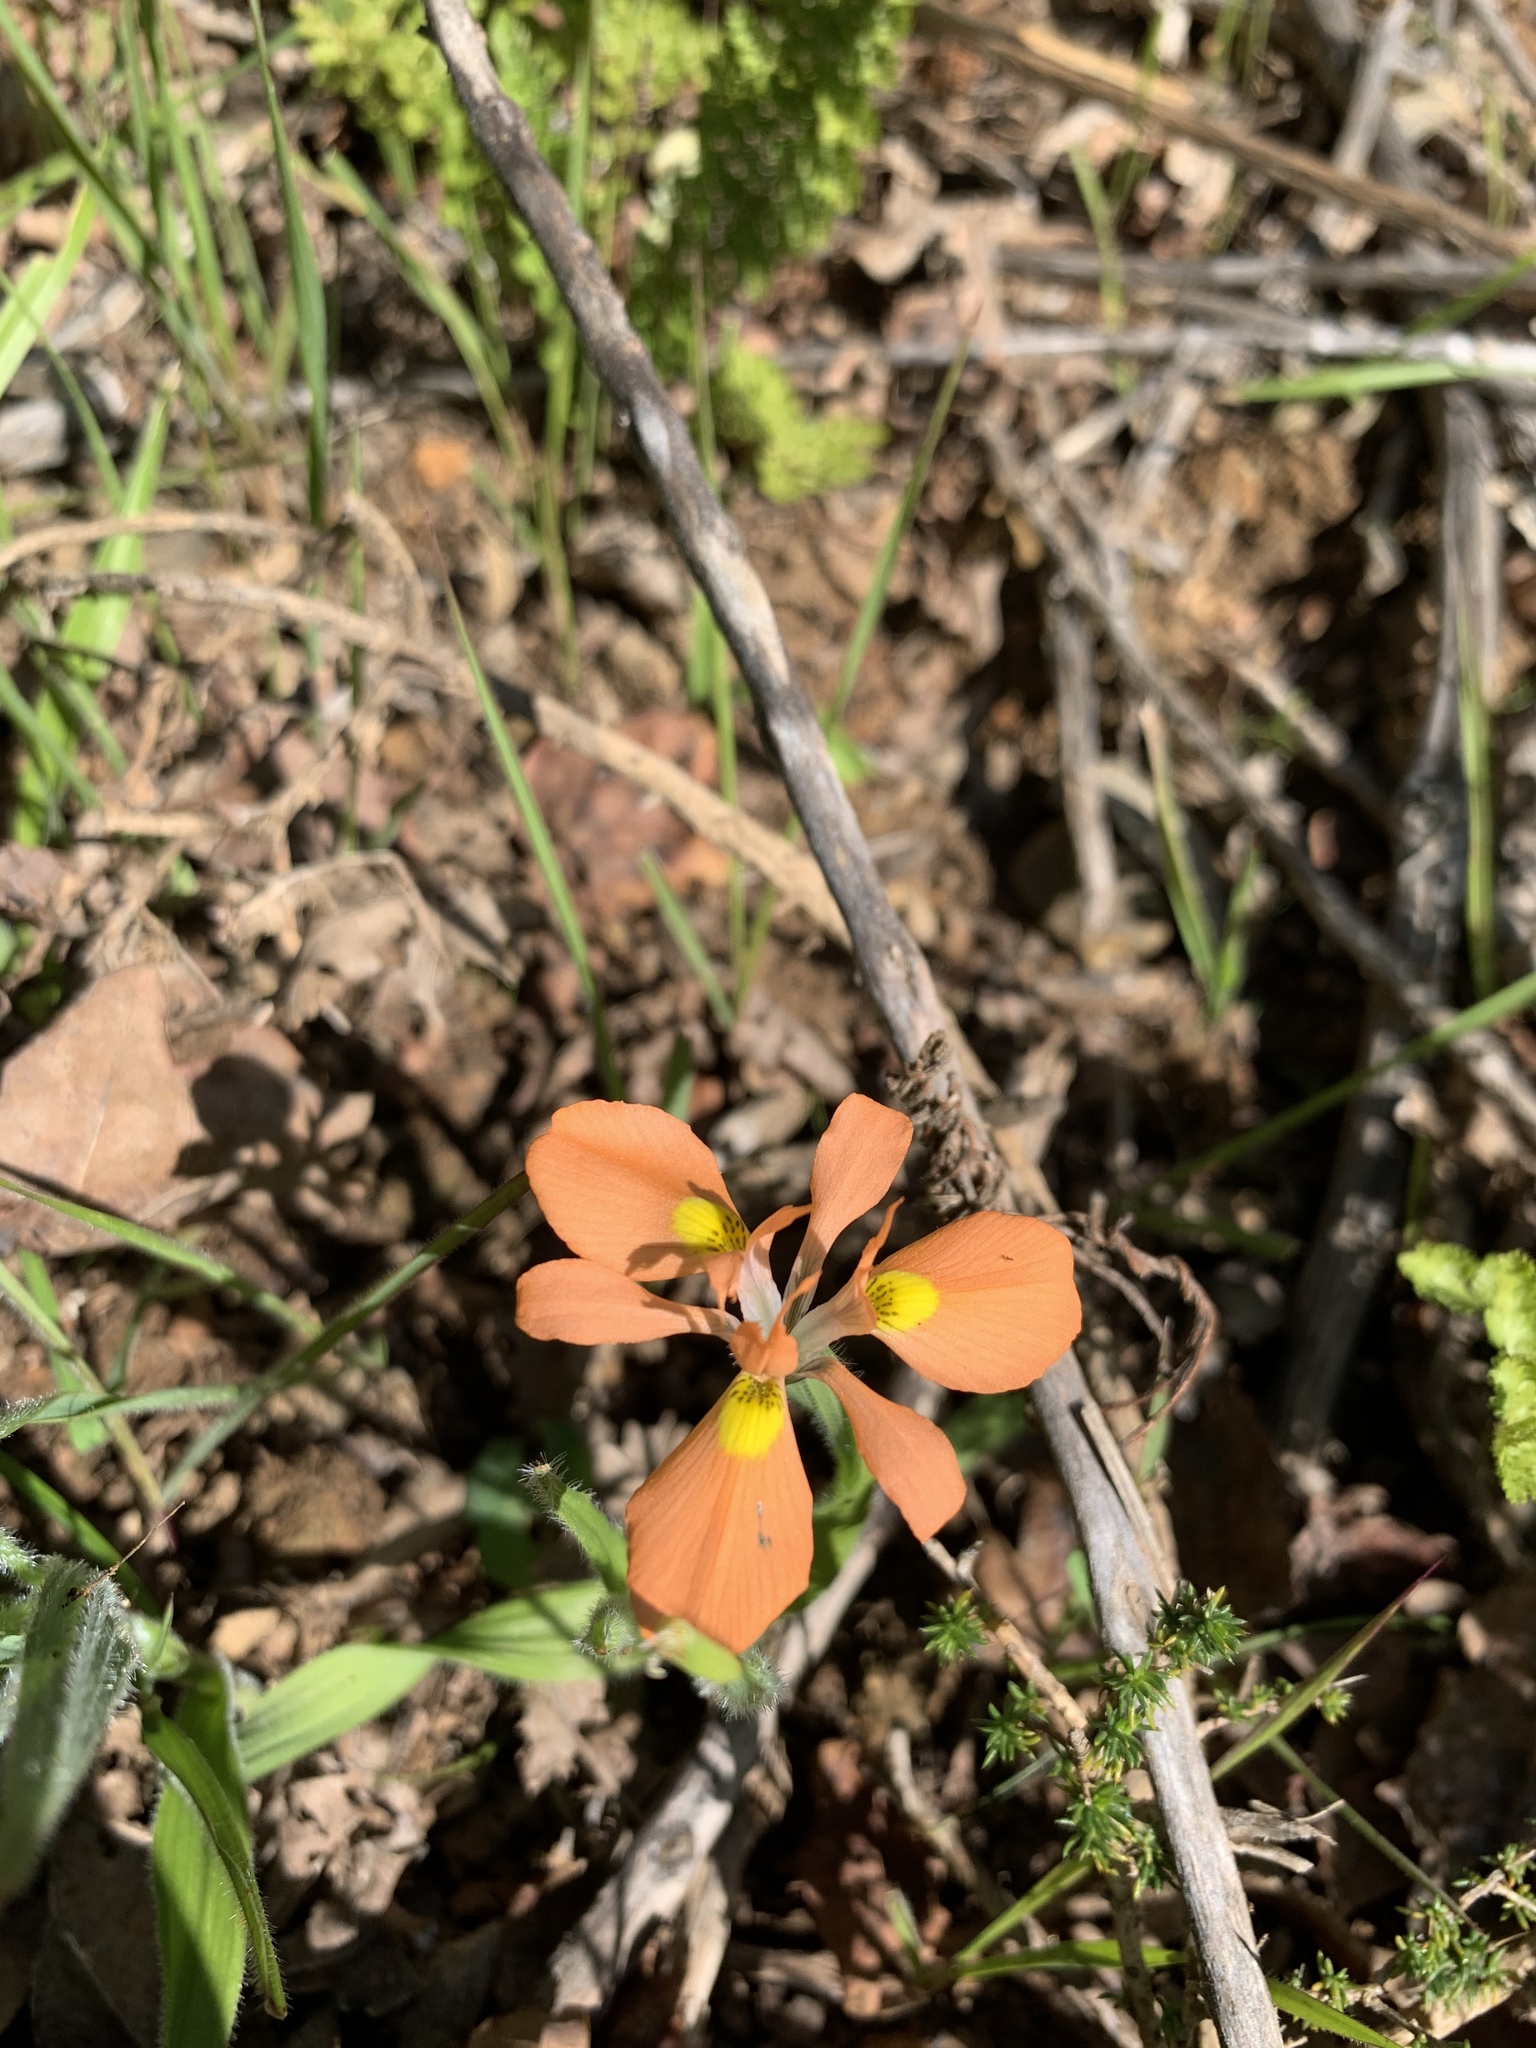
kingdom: Plantae
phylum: Tracheophyta
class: Liliopsida
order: Asparagales
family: Iridaceae
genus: Moraea
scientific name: Moraea papilionacea
